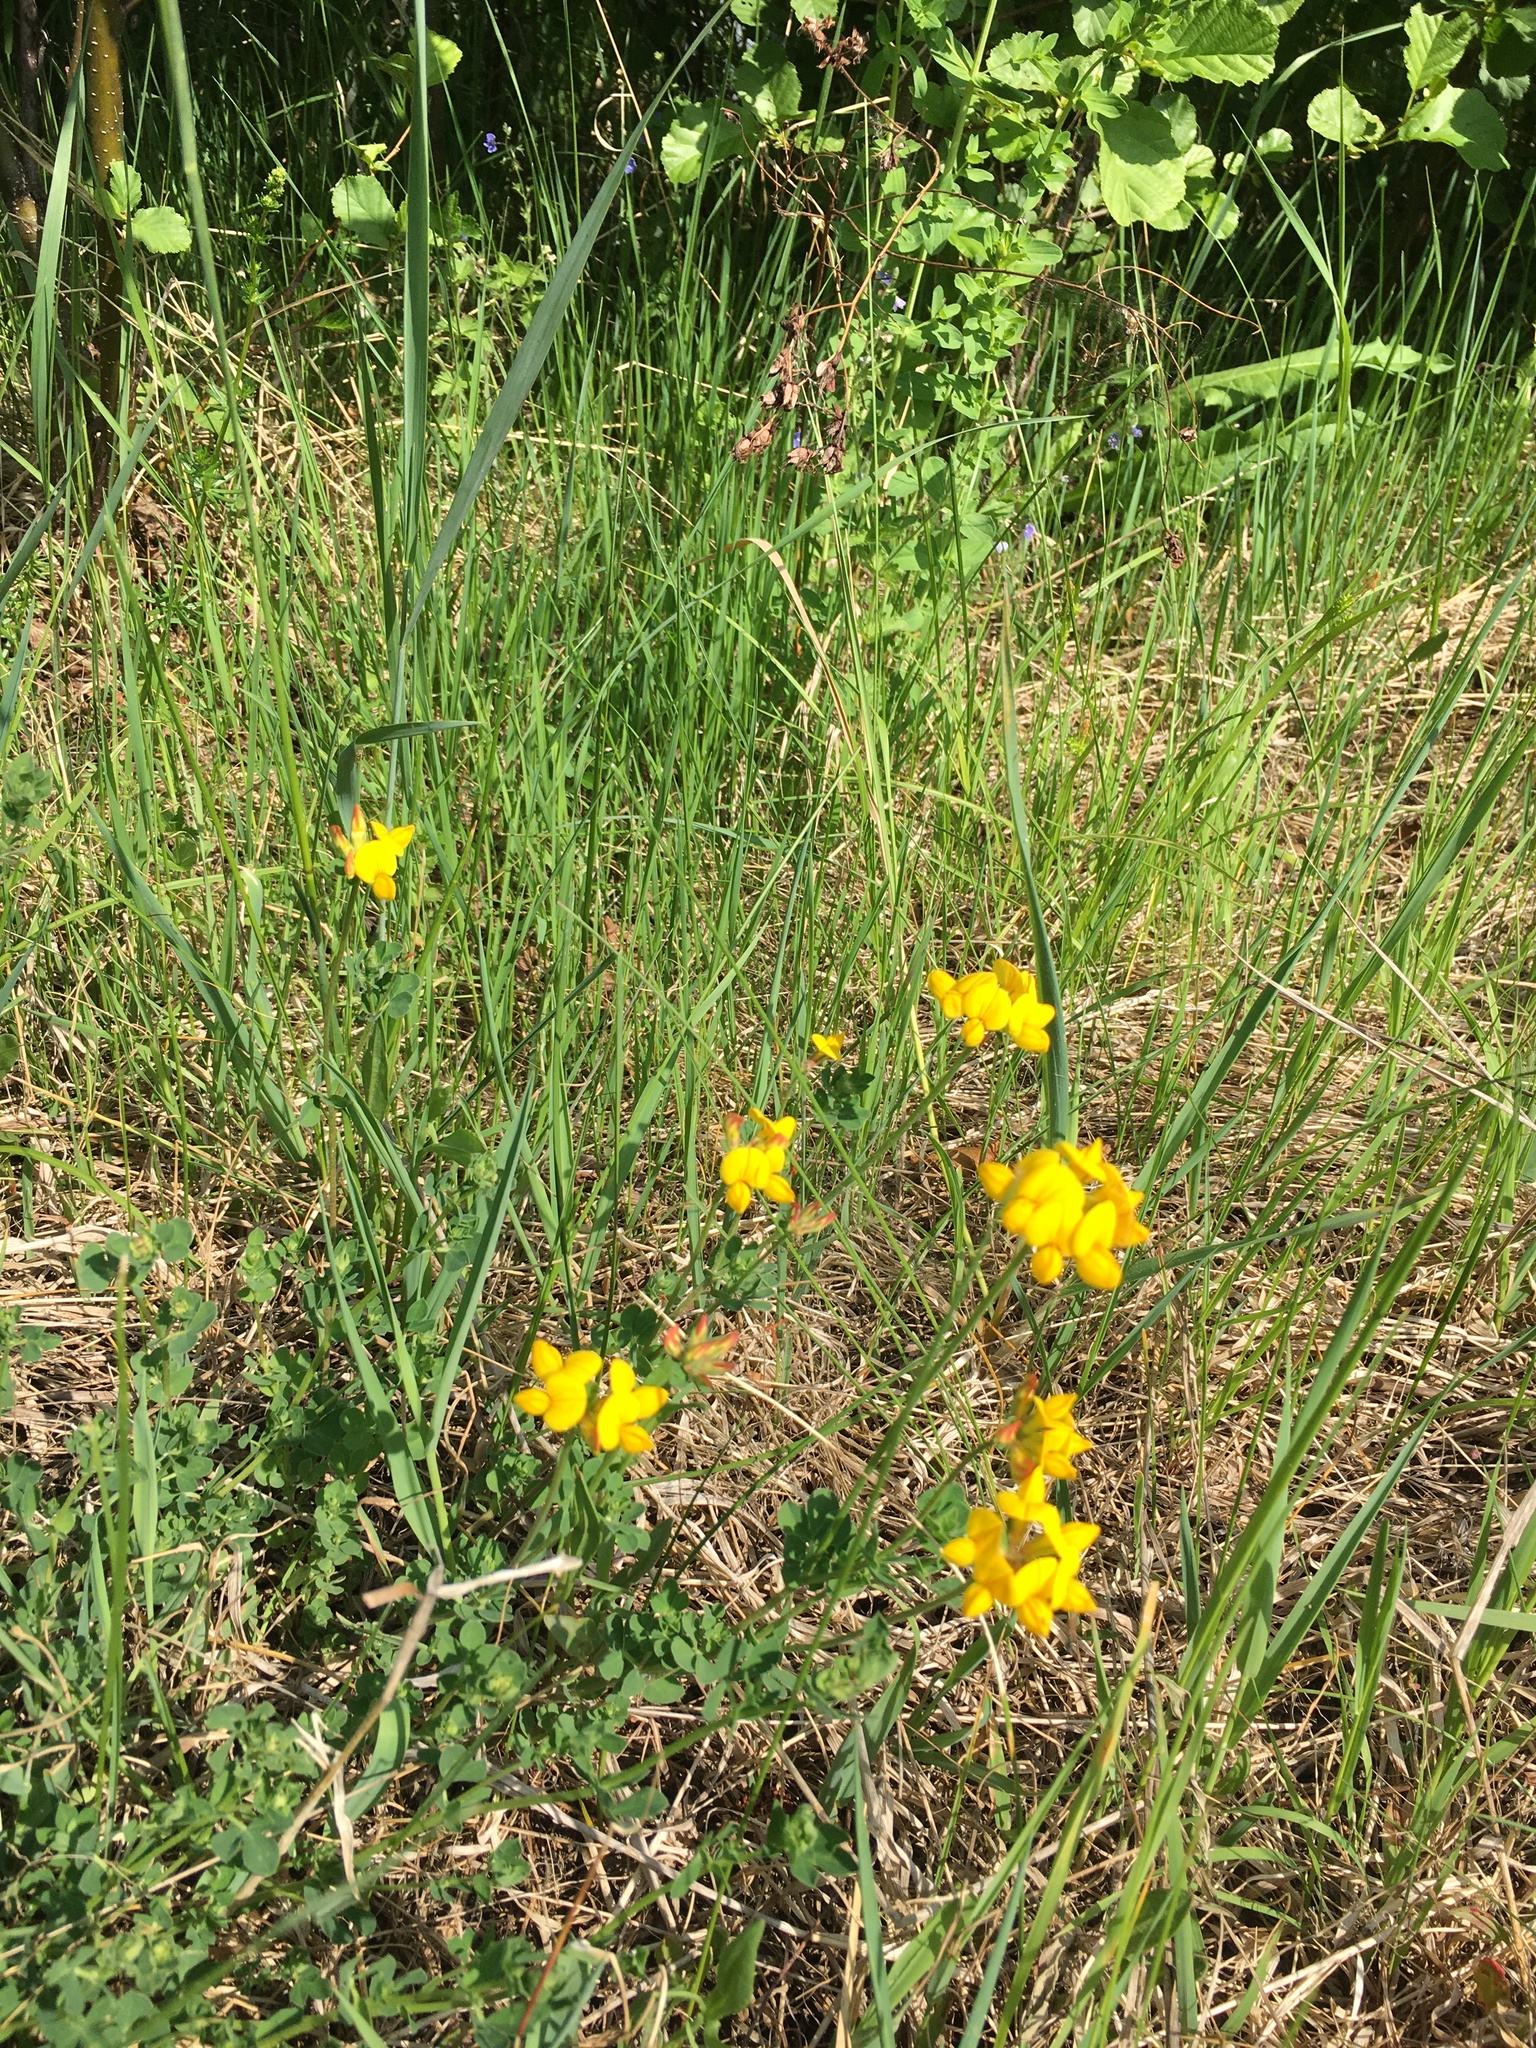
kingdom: Plantae
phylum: Tracheophyta
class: Magnoliopsida
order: Fabales
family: Fabaceae
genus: Lotus
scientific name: Lotus corniculatus
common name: Common bird's-foot-trefoil
